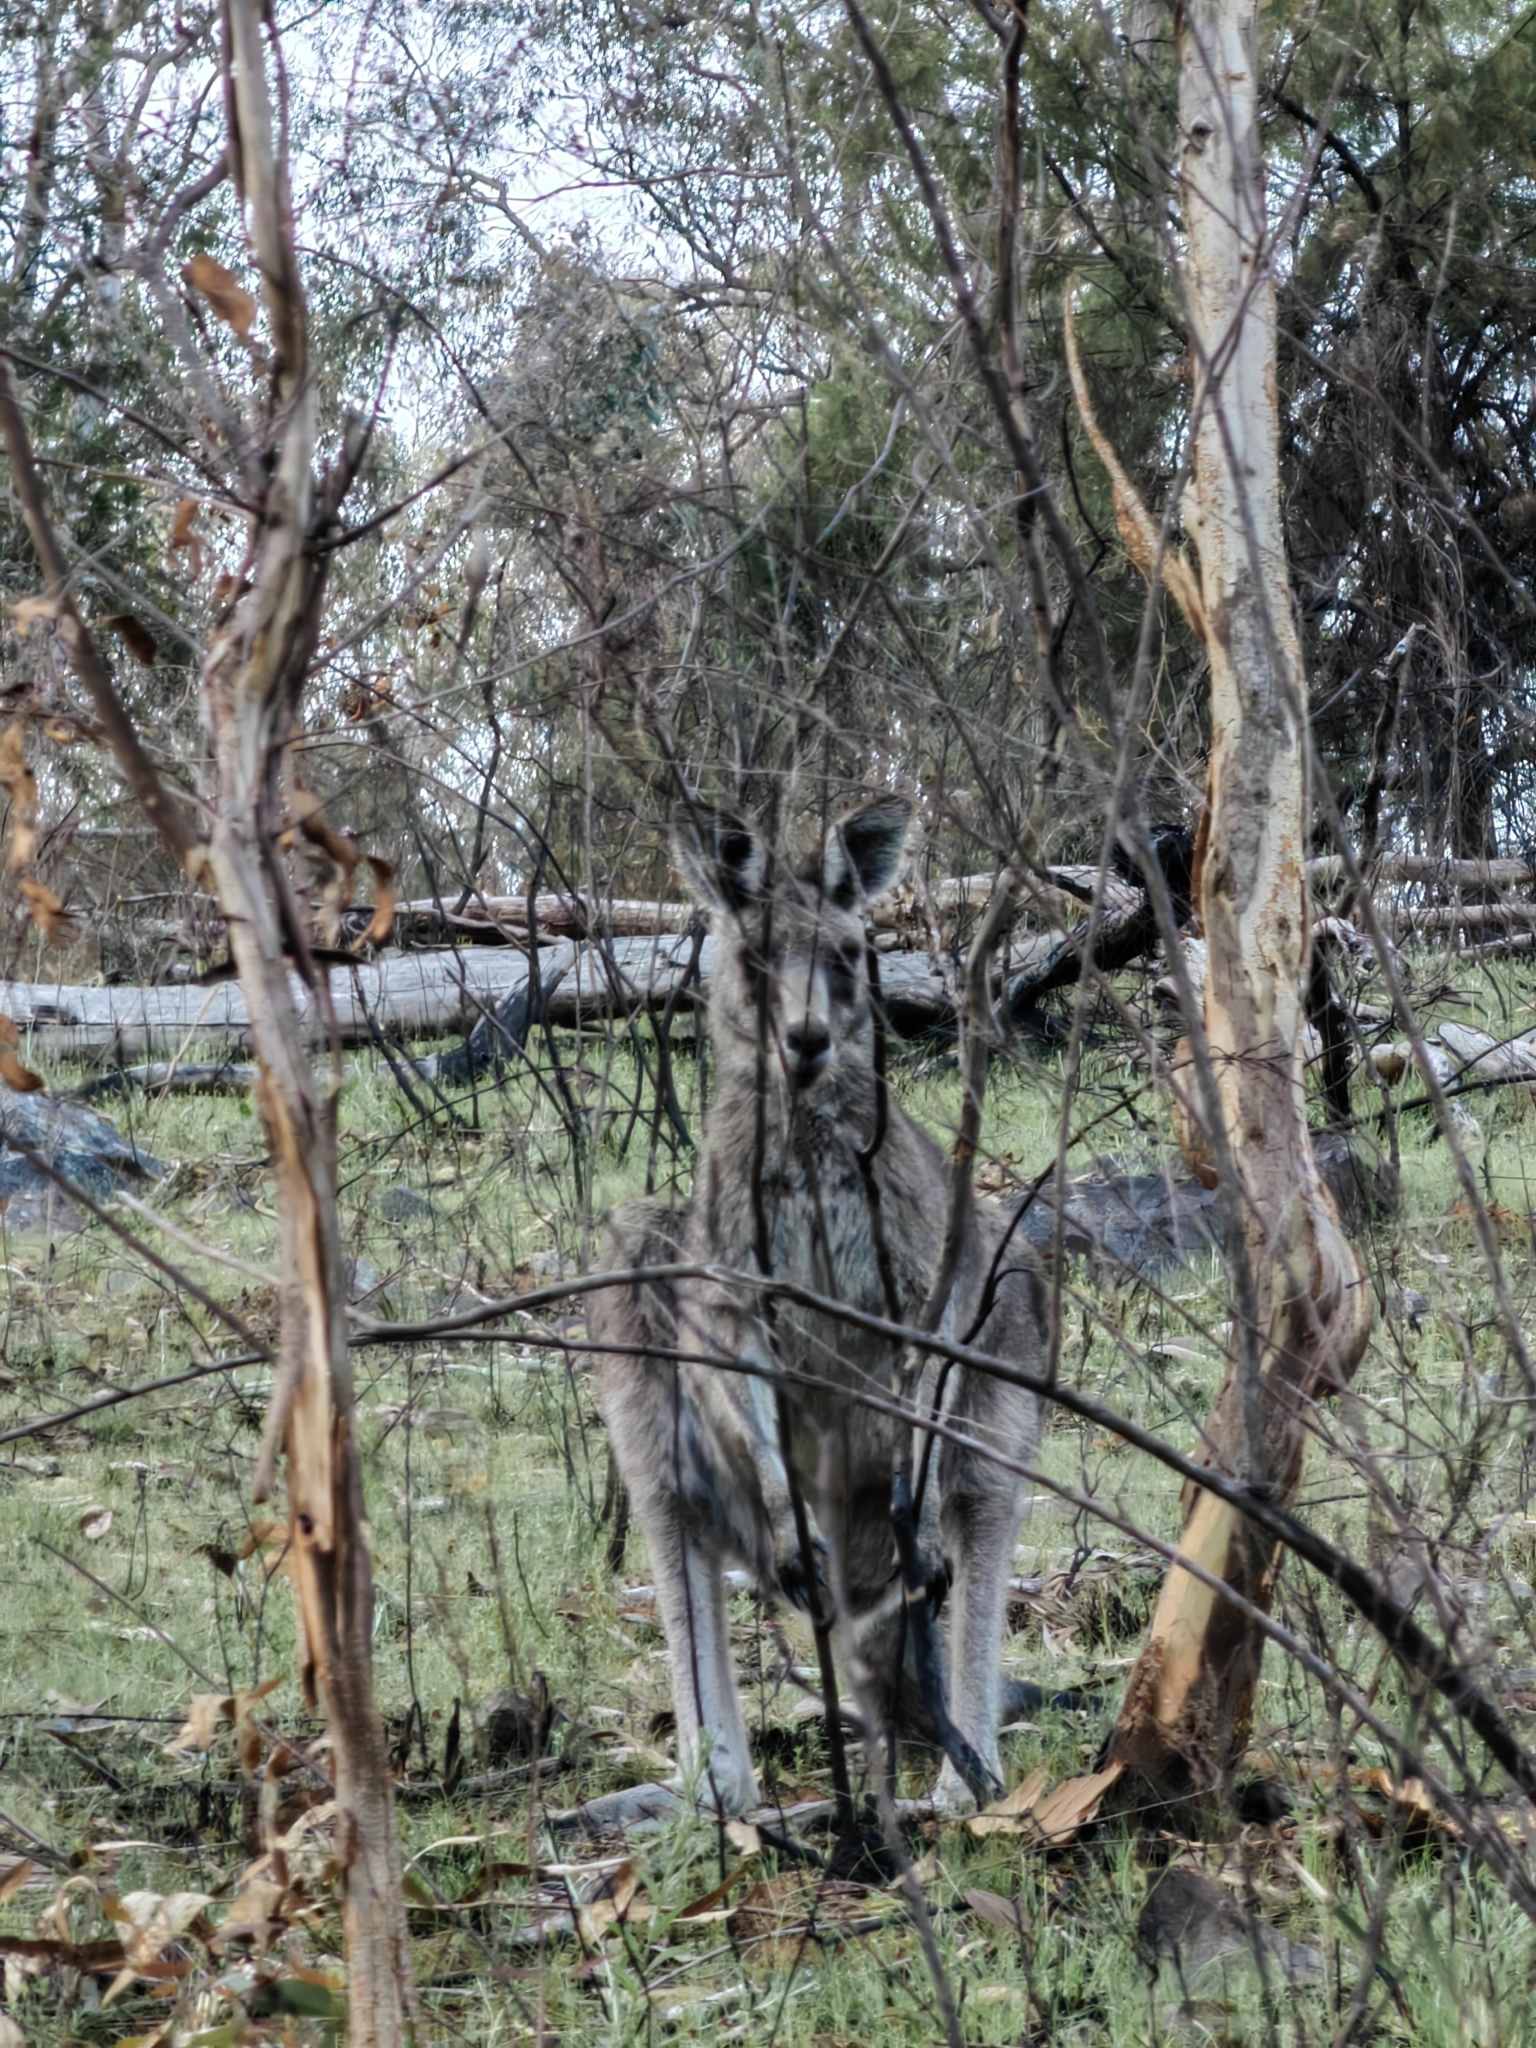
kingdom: Animalia
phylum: Chordata
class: Mammalia
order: Diprotodontia
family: Macropodidae
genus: Macropus
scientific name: Macropus giganteus
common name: Eastern grey kangaroo
